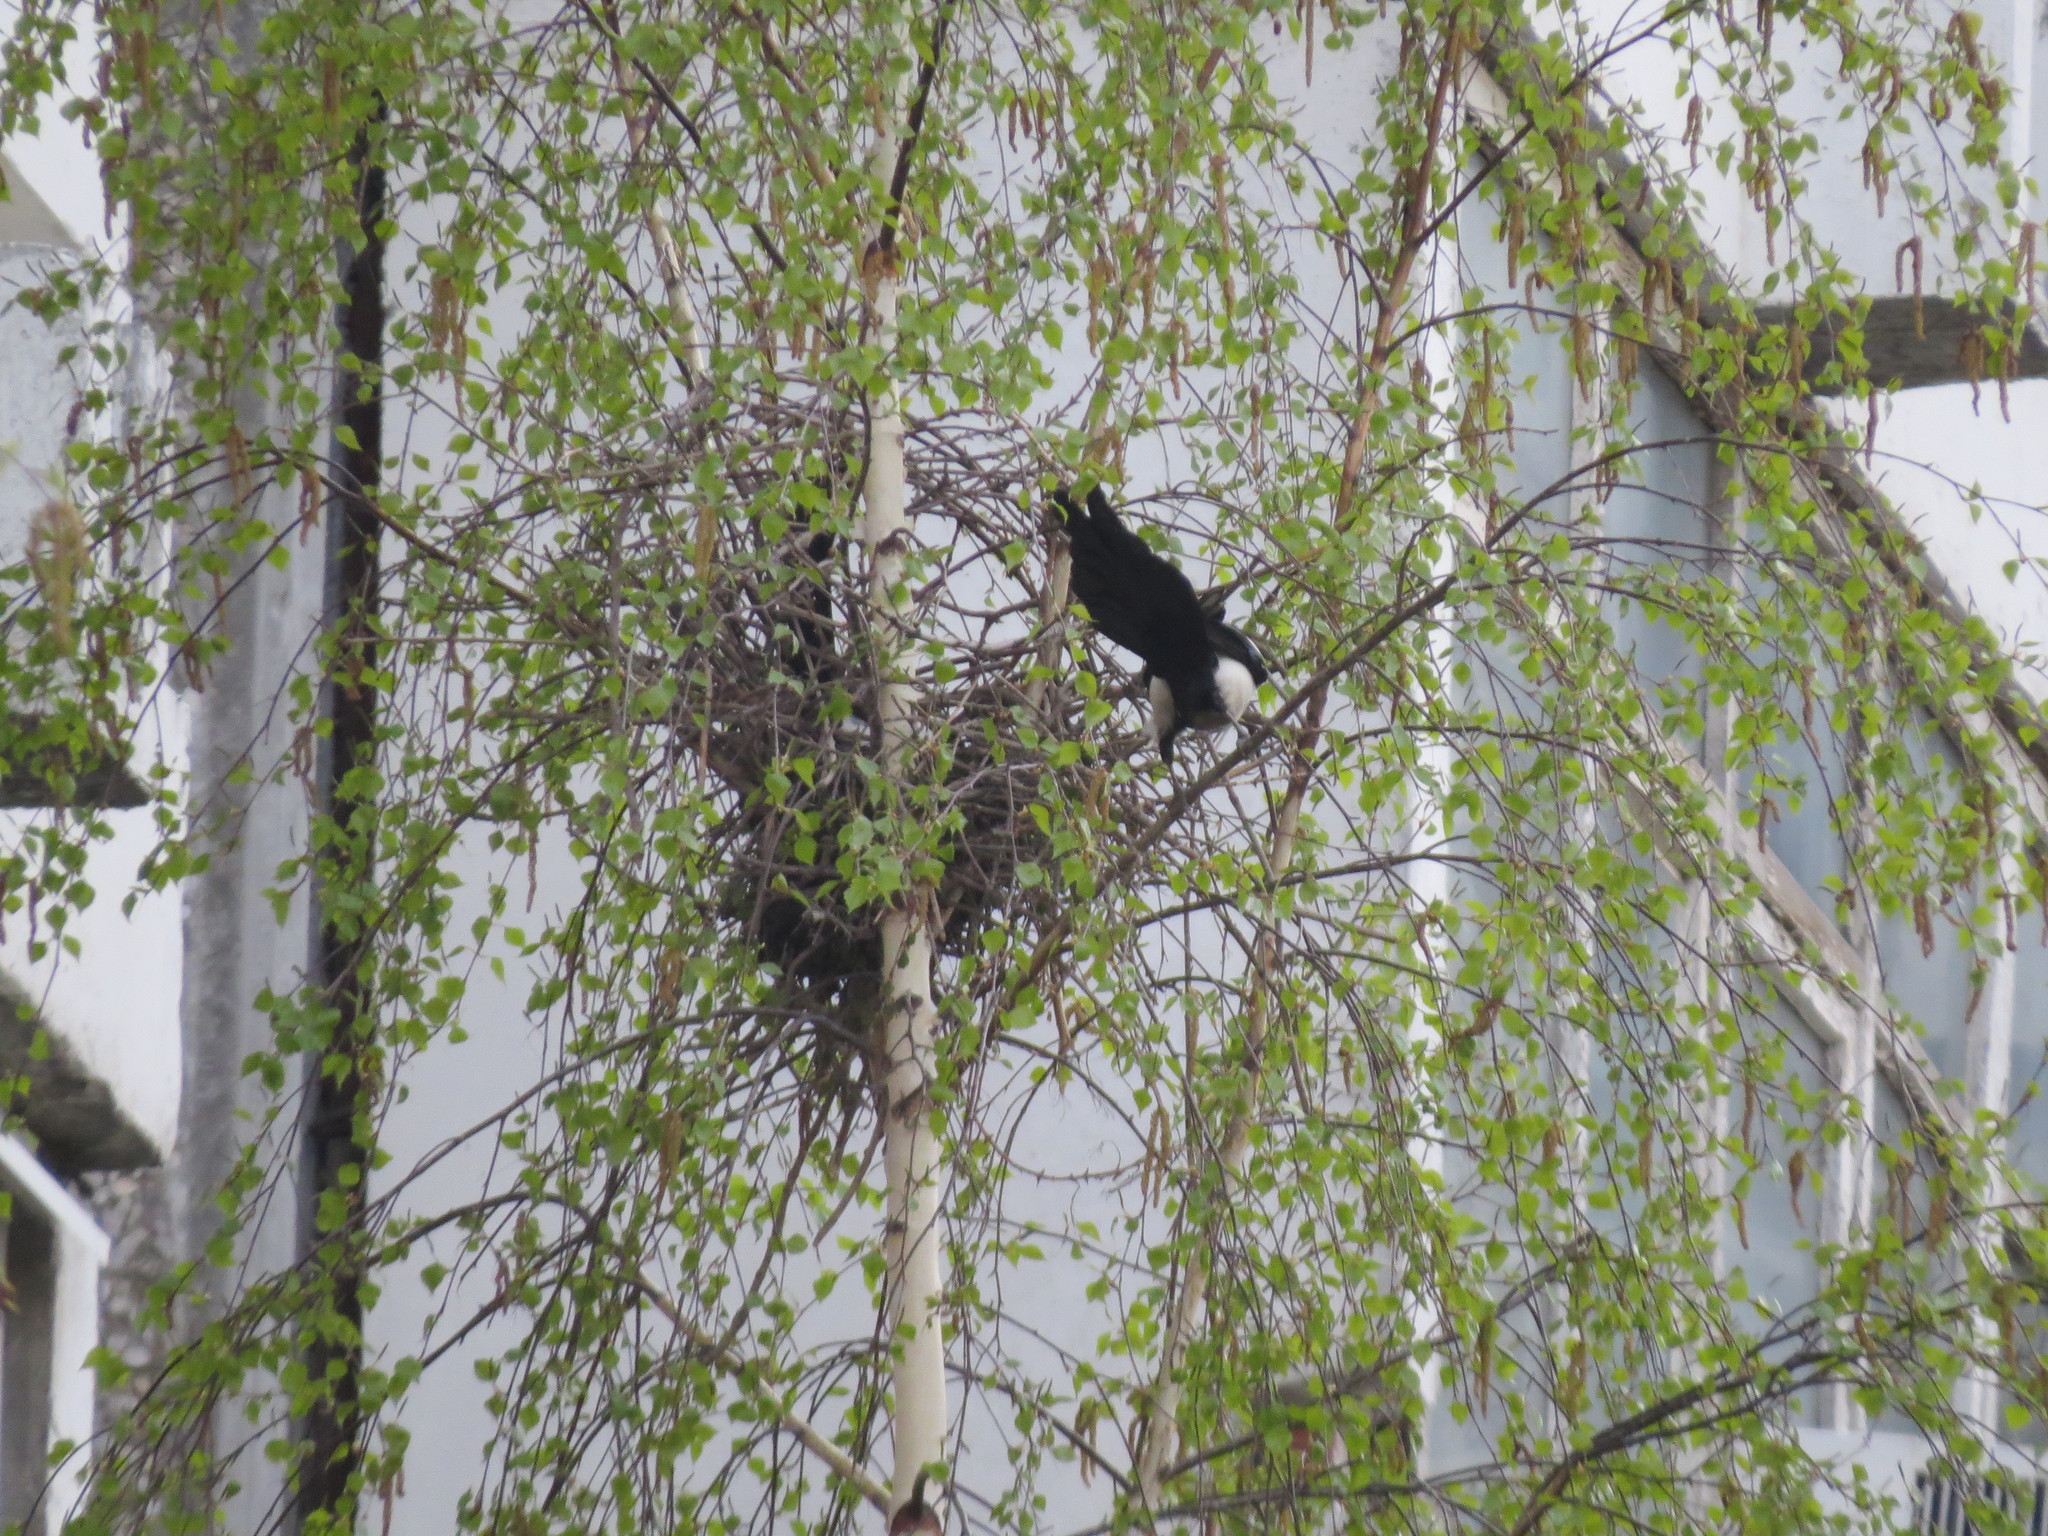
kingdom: Animalia
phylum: Chordata
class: Aves
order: Passeriformes
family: Corvidae
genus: Pica
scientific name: Pica pica
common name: Eurasian magpie
